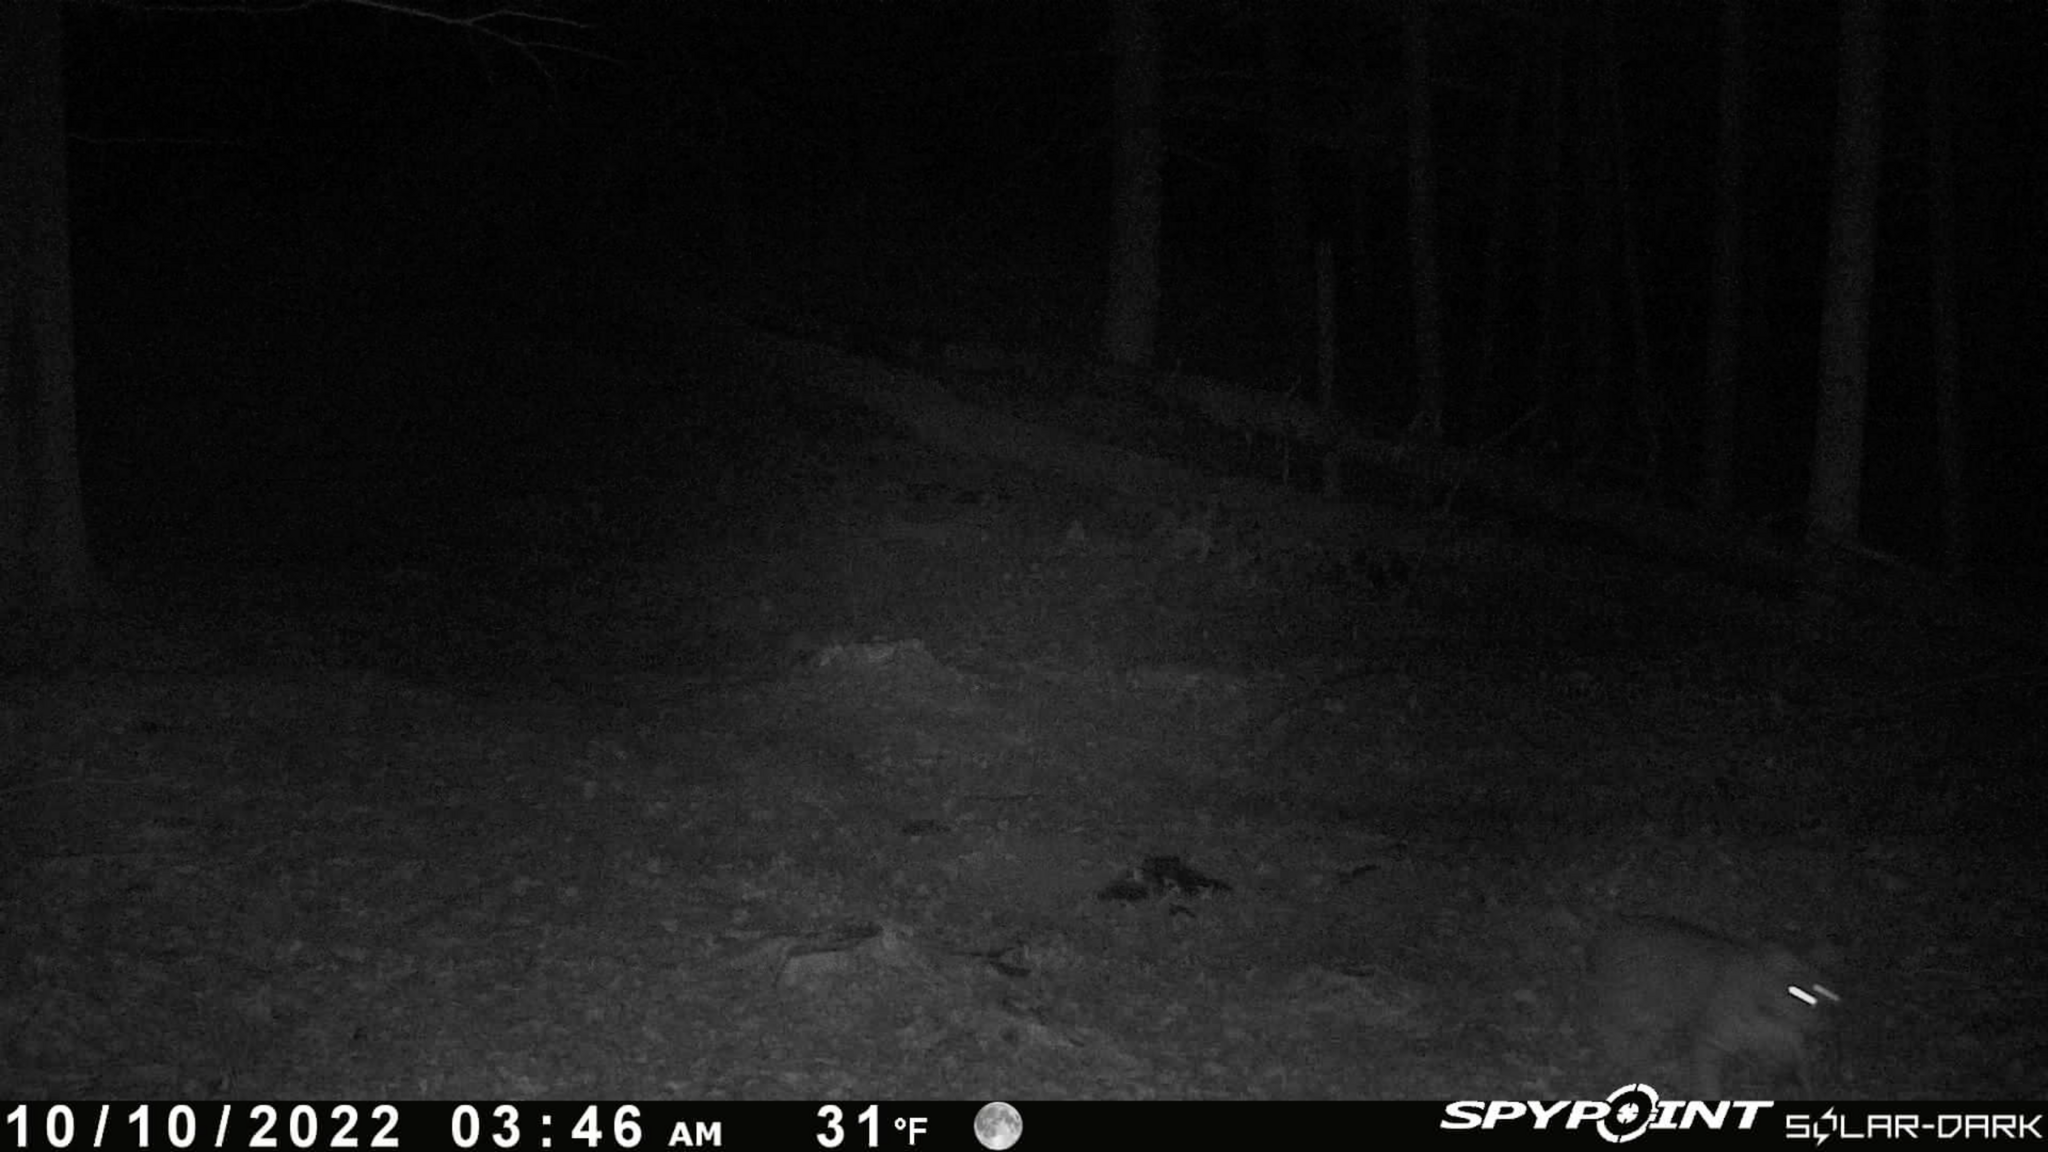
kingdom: Animalia
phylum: Chordata
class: Mammalia
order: Carnivora
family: Felidae
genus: Lynx
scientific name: Lynx rufus
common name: Bobcat
